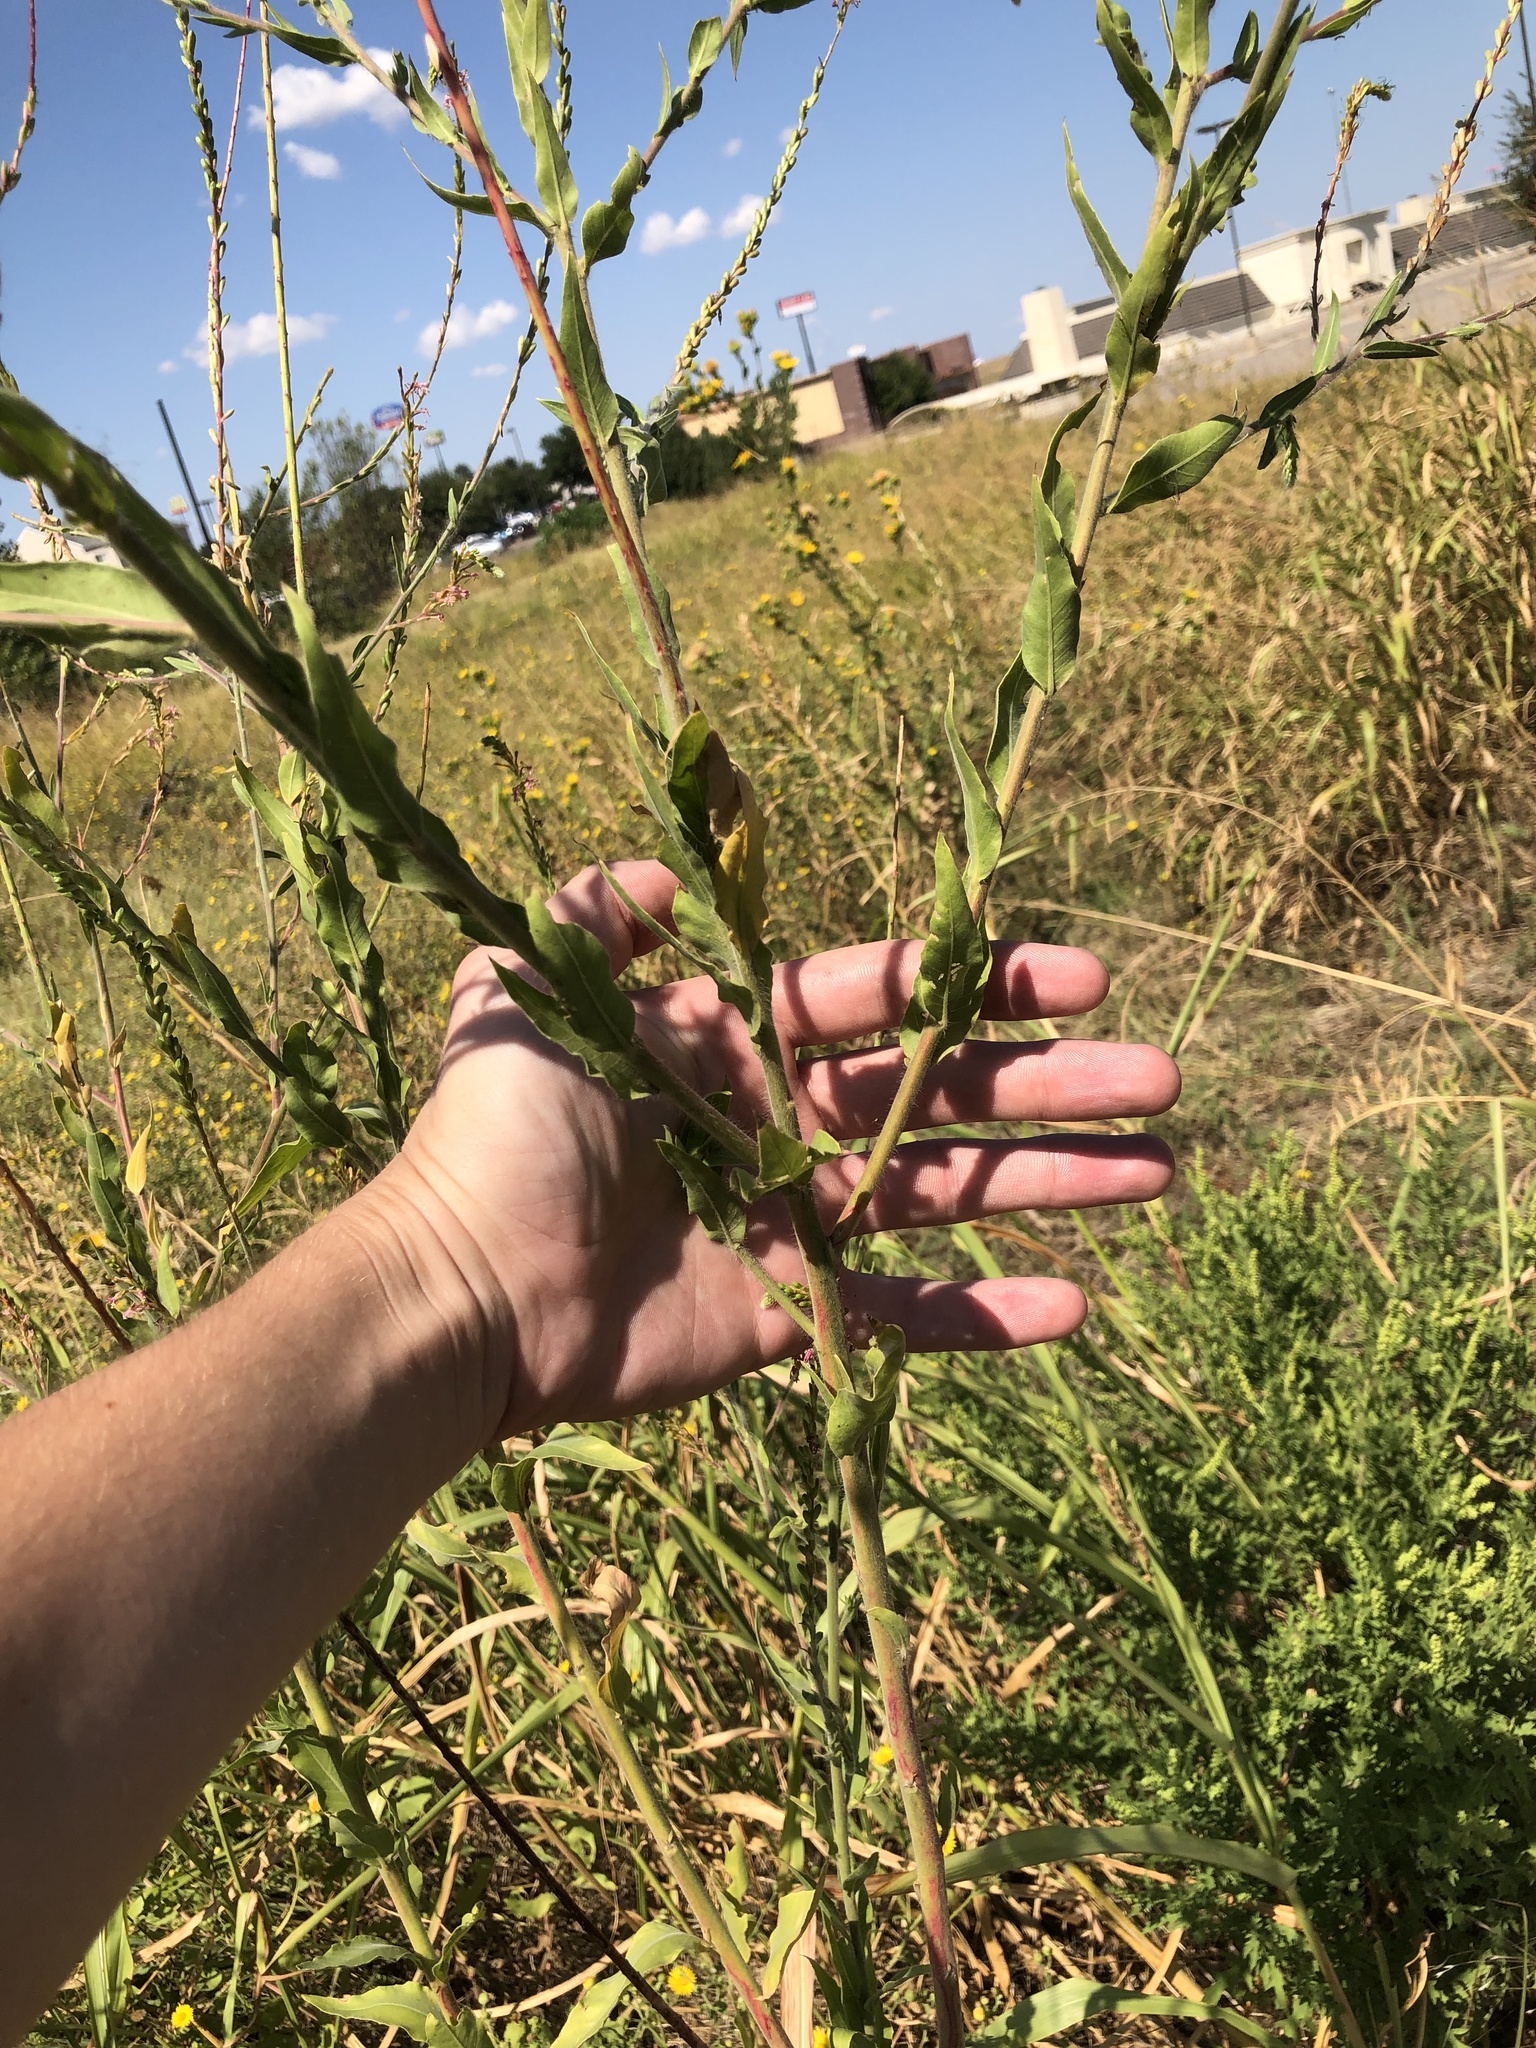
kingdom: Plantae
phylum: Tracheophyta
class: Magnoliopsida
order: Myrtales
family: Onagraceae
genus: Oenothera
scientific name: Oenothera curtiflora
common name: Velvetweed
